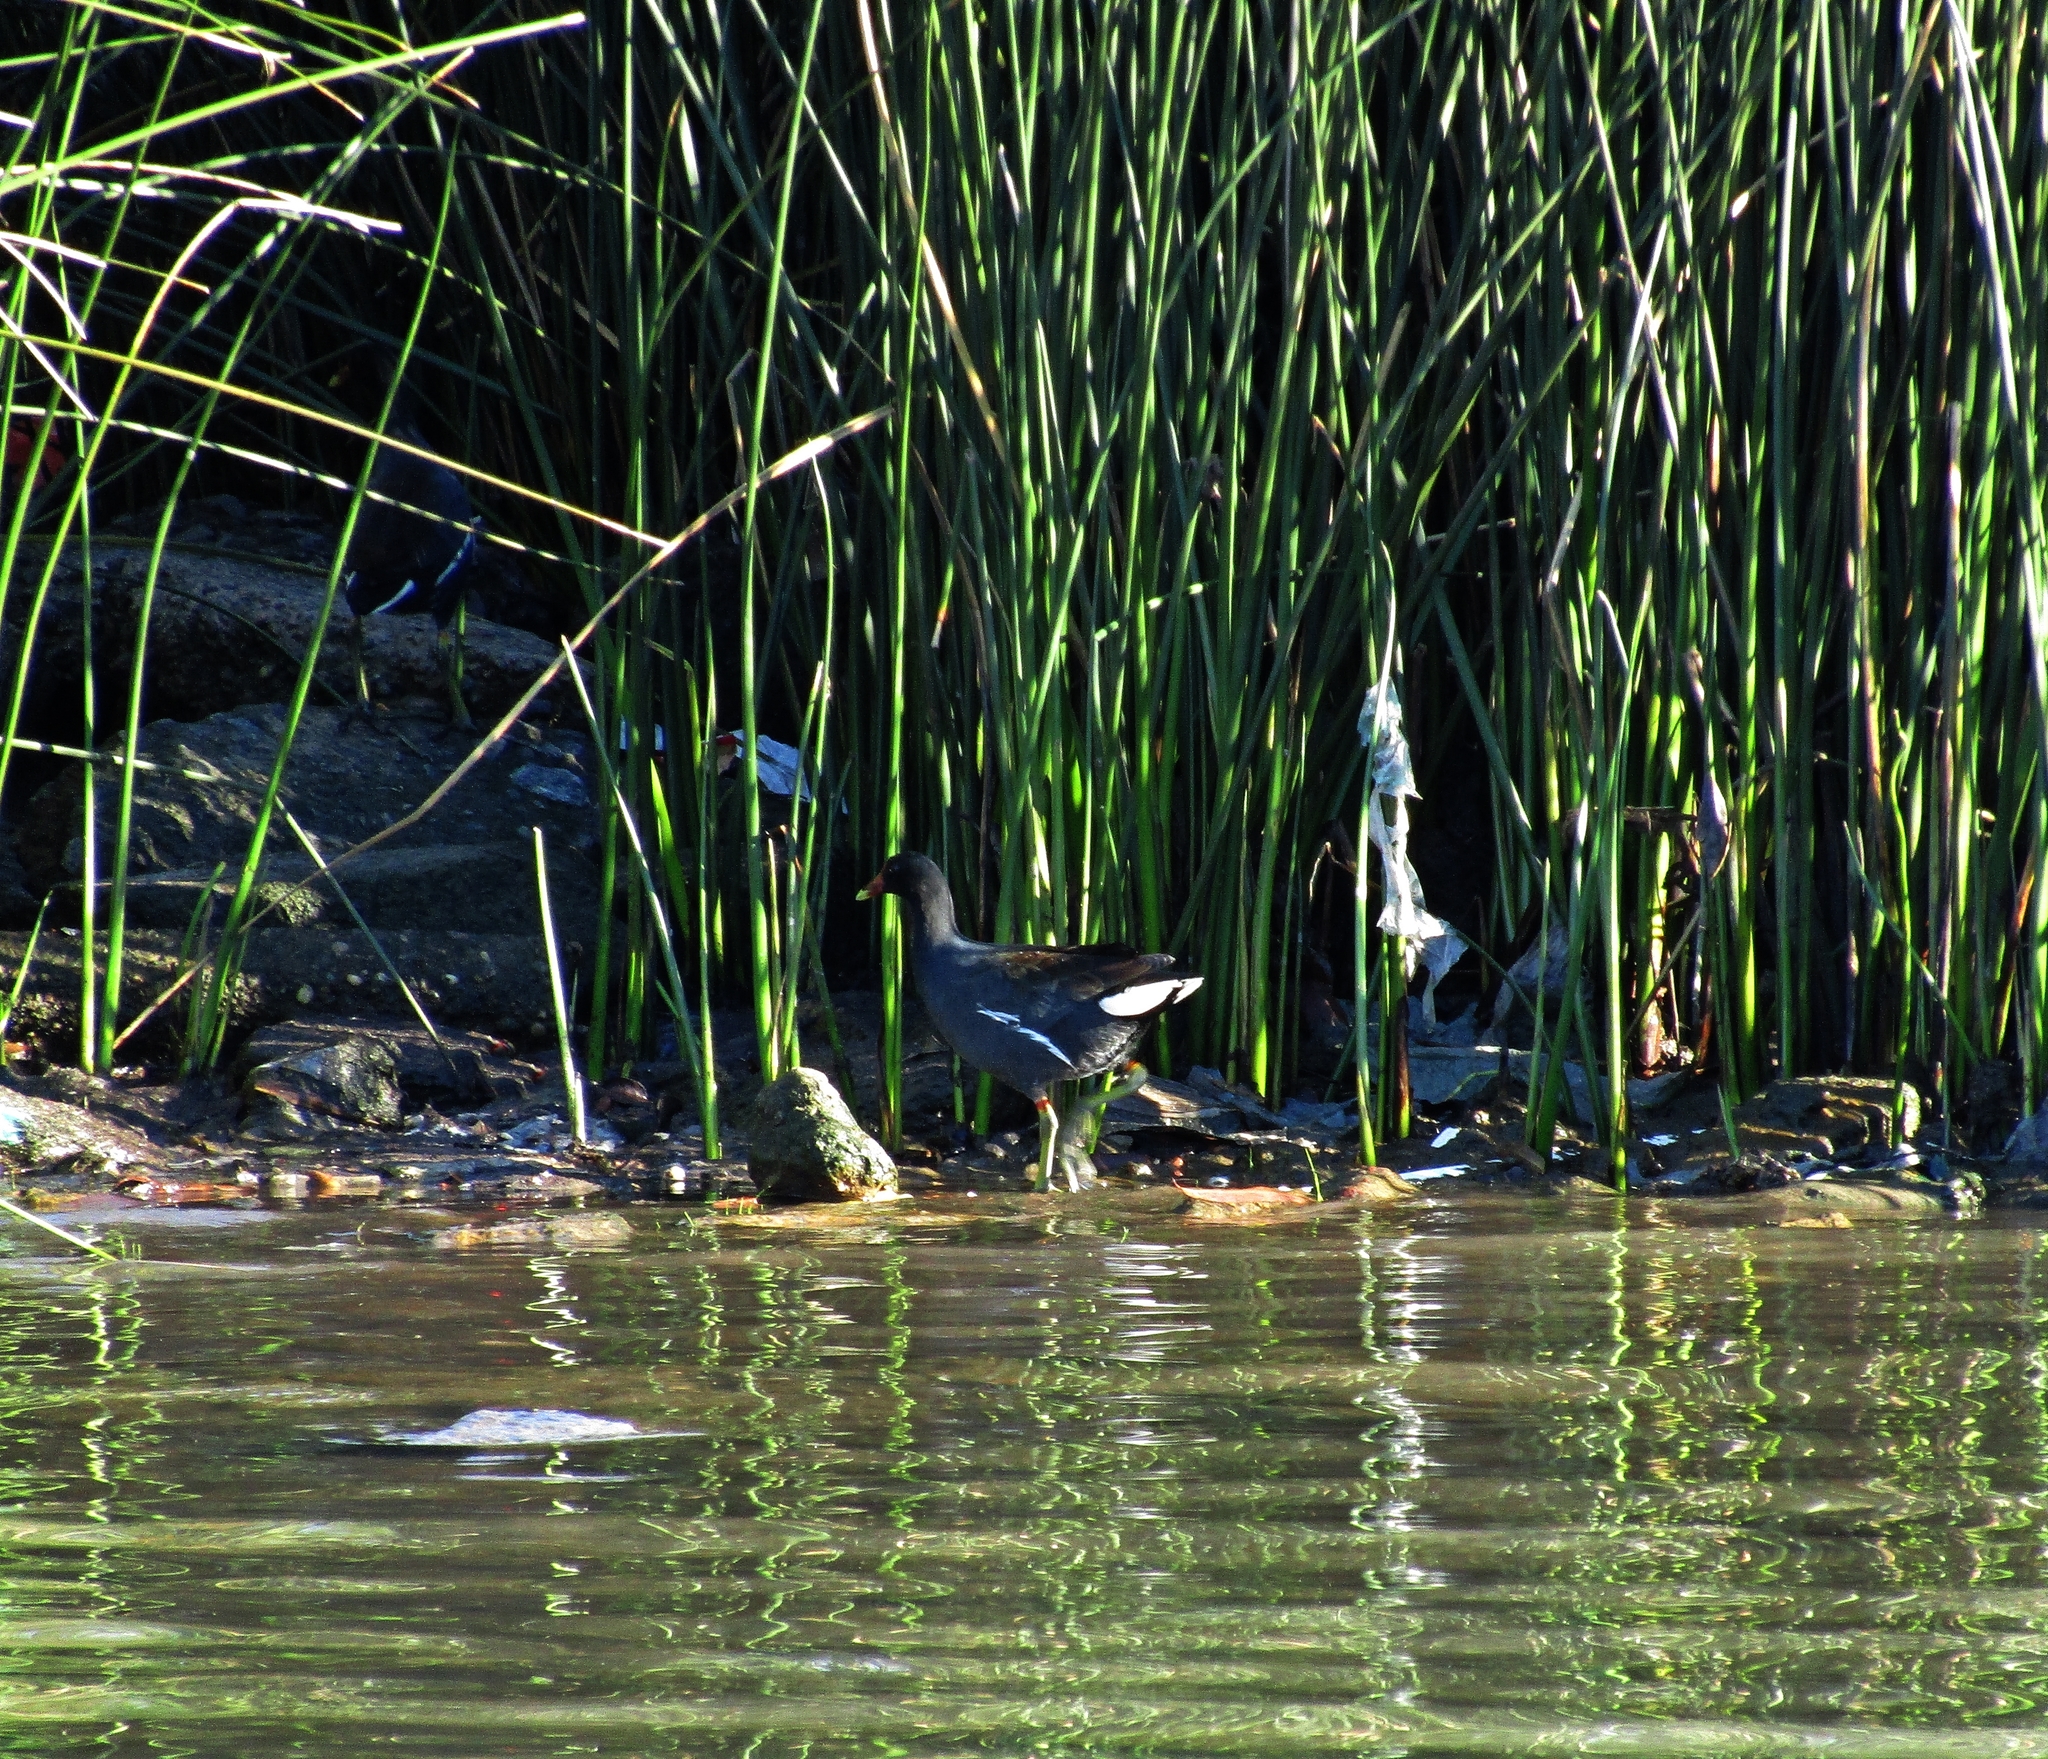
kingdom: Animalia
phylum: Chordata
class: Aves
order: Gruiformes
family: Rallidae
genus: Gallinula
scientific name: Gallinula chloropus
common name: Common moorhen
